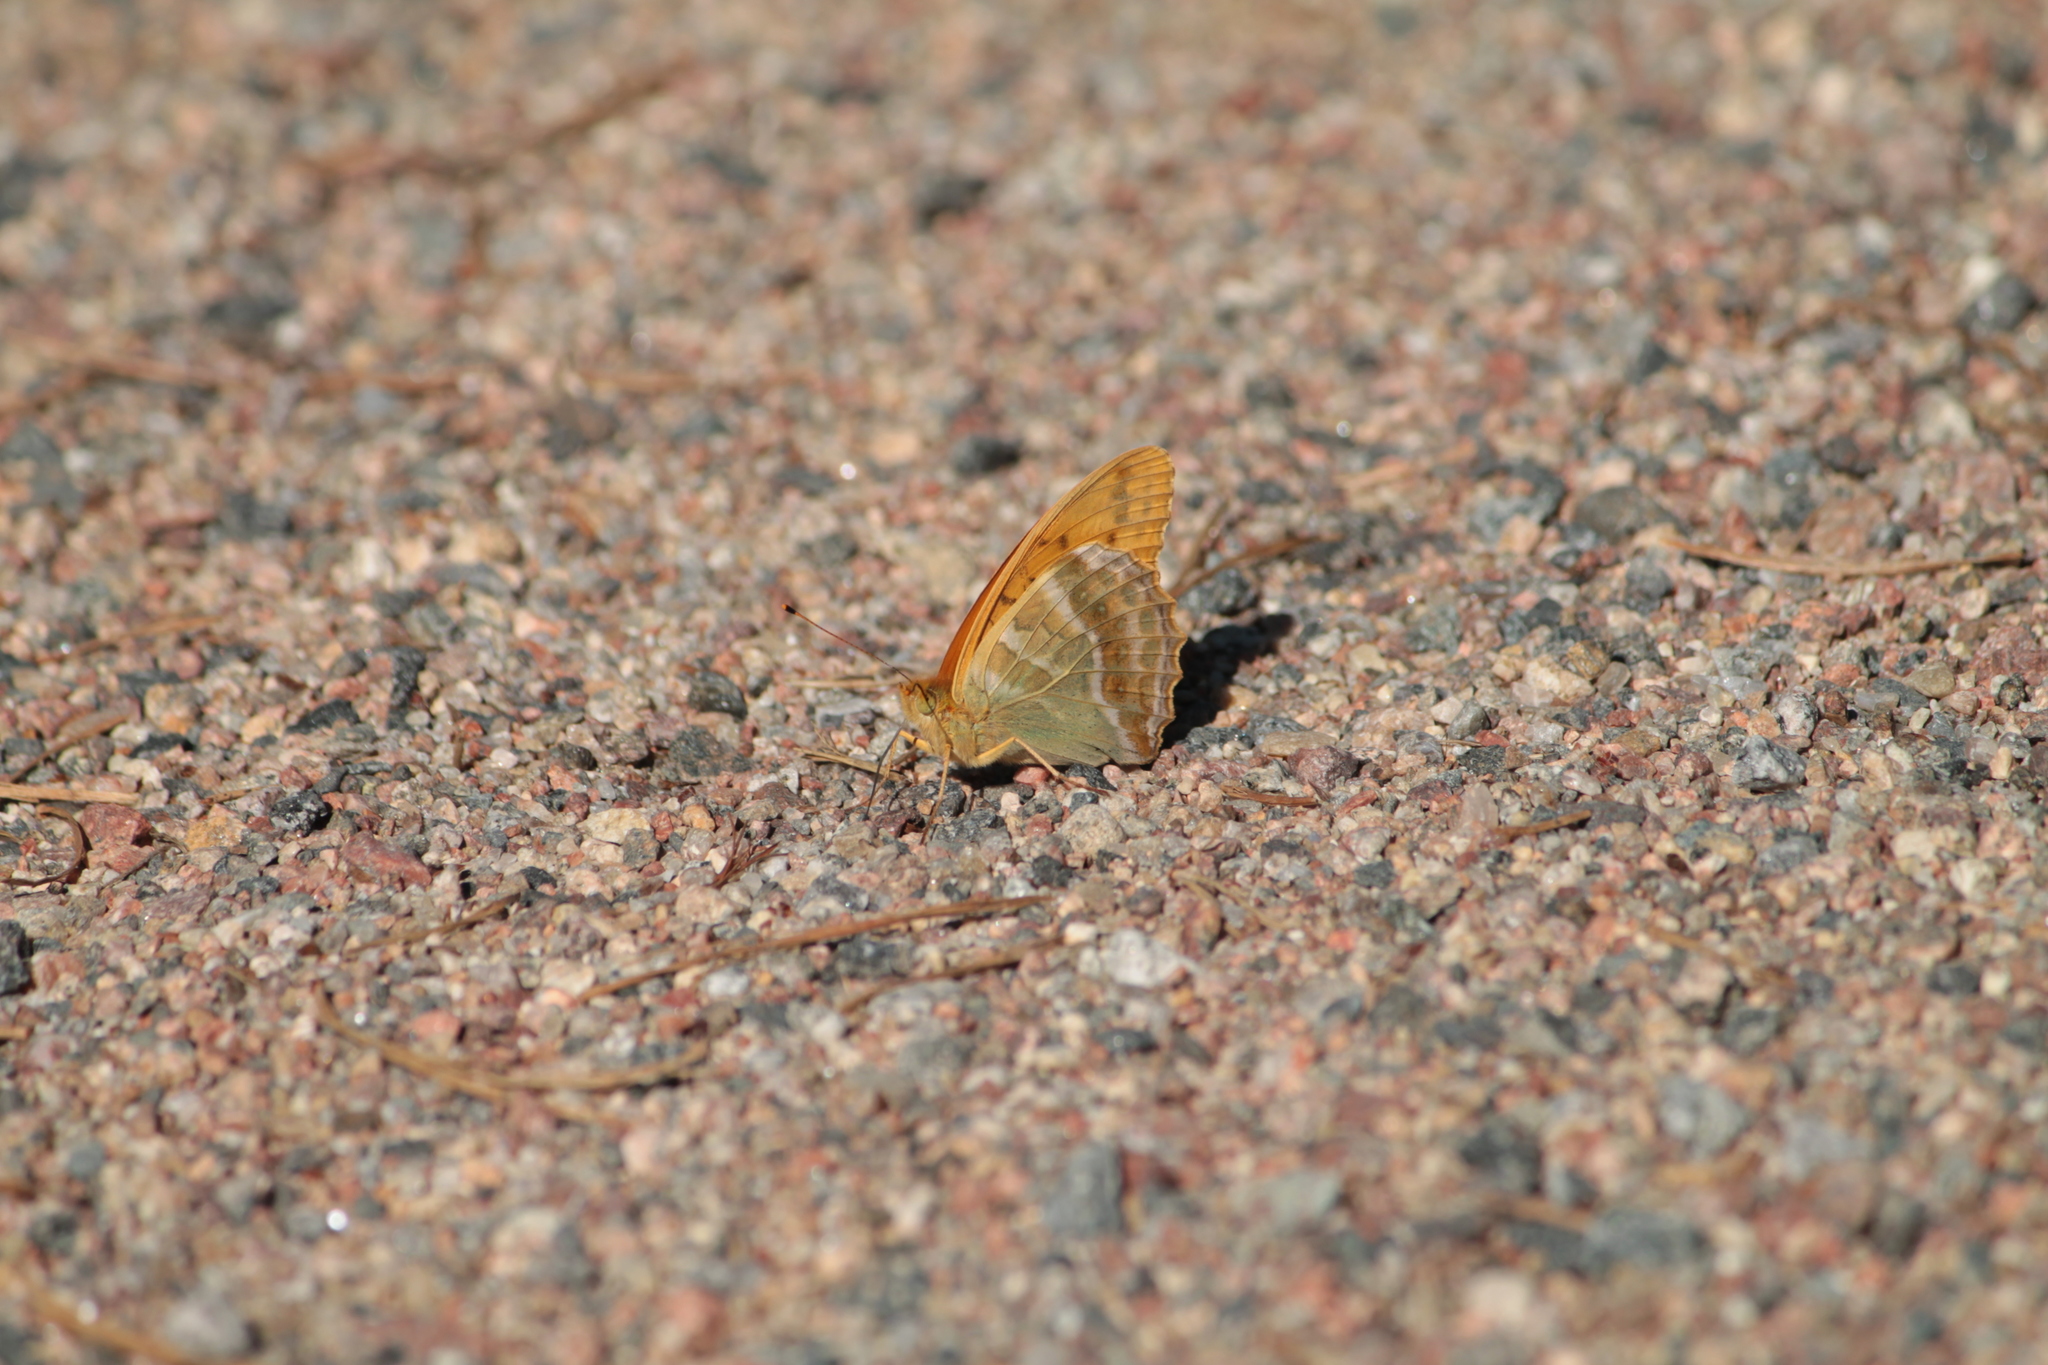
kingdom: Animalia
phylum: Arthropoda
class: Insecta
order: Lepidoptera
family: Nymphalidae
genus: Argynnis
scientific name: Argynnis paphia
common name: Silver-washed fritillary
